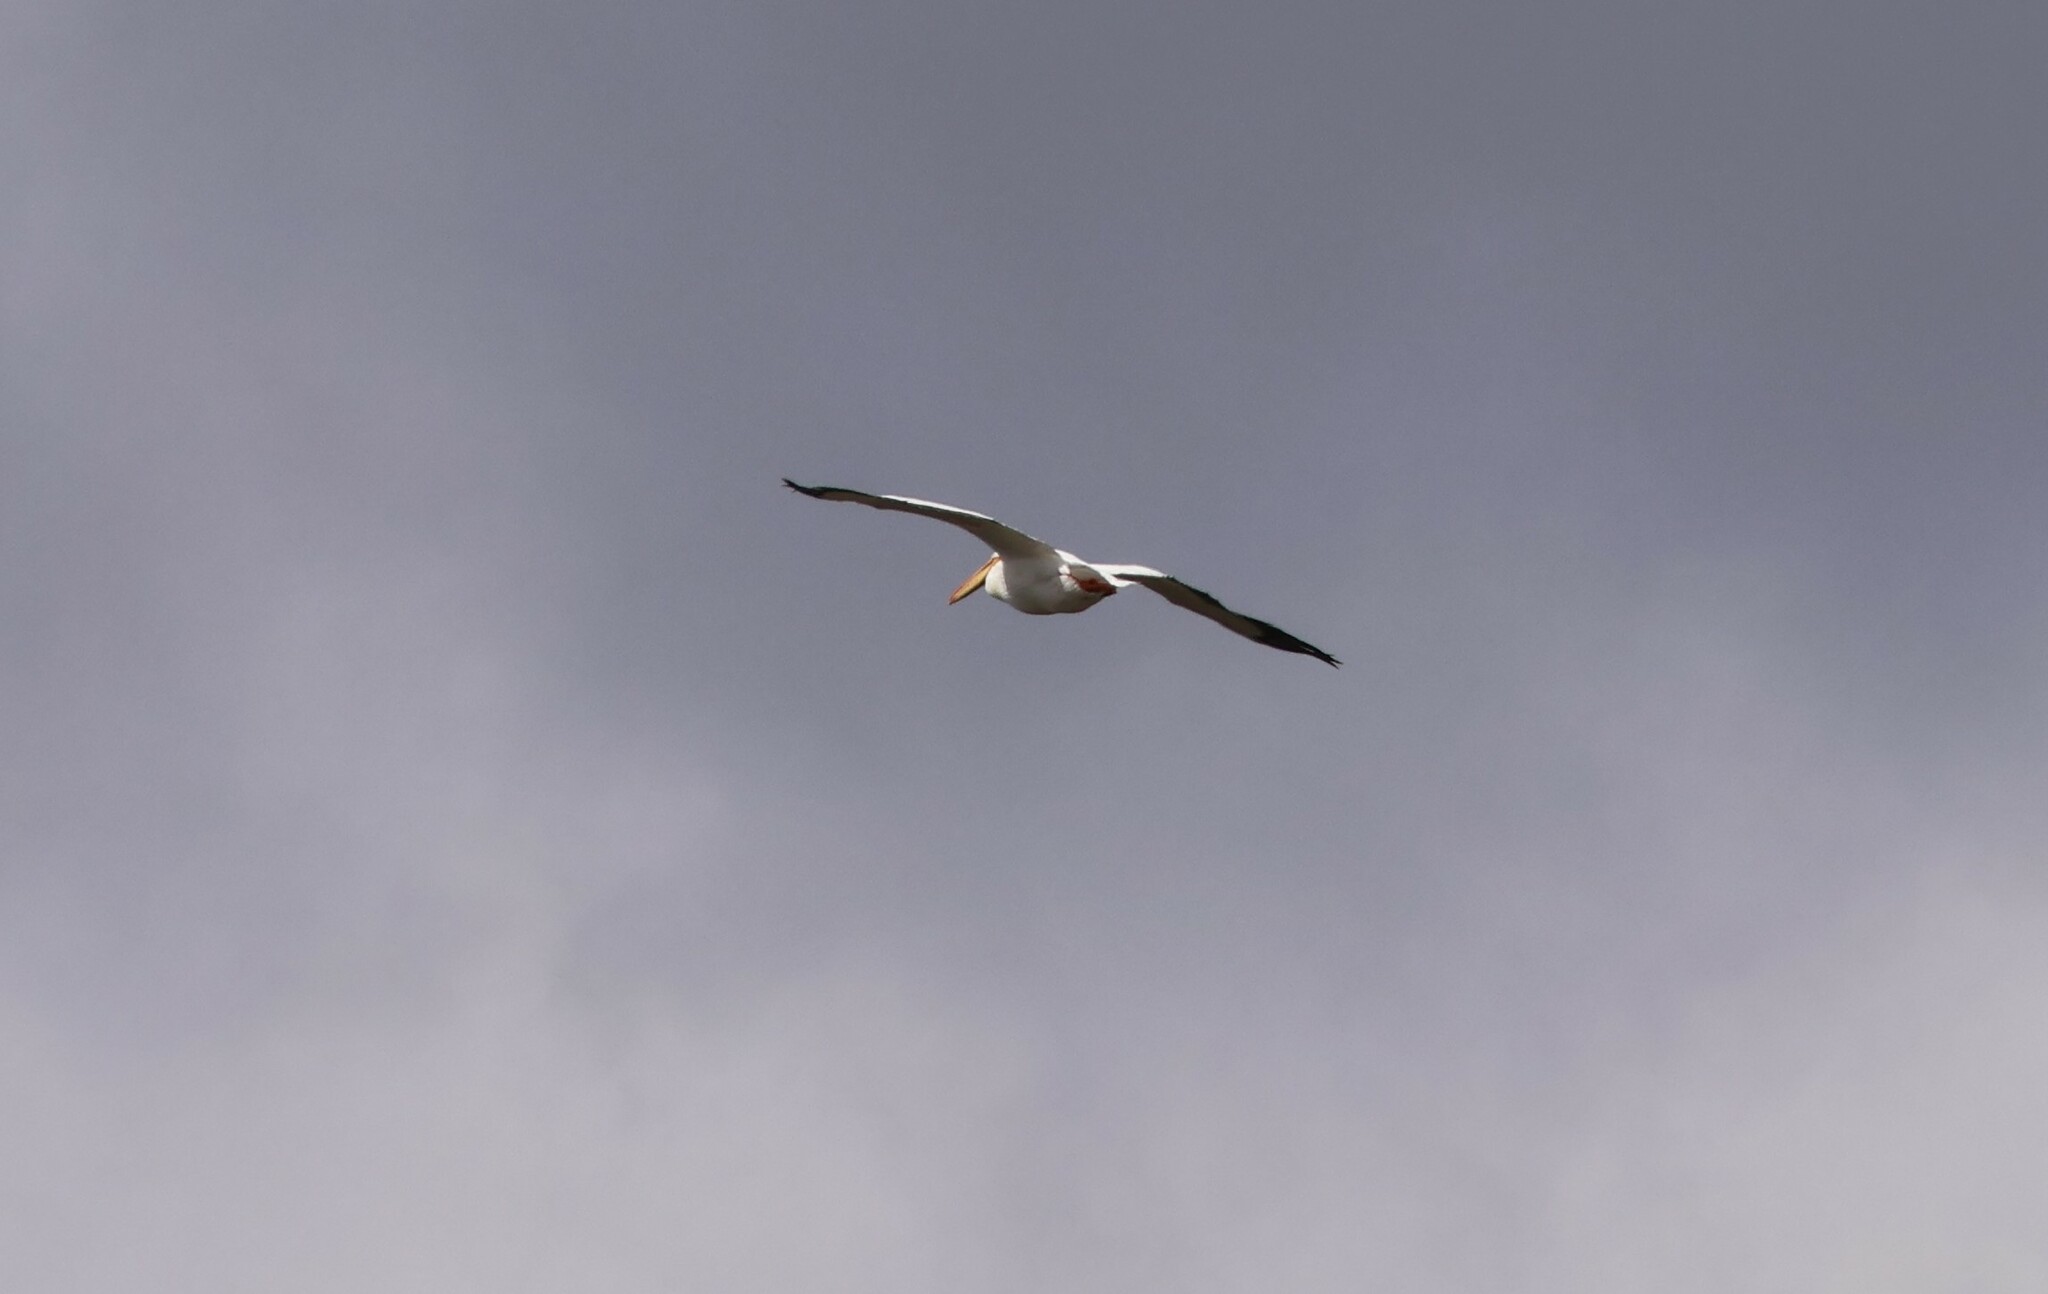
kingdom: Animalia
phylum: Chordata
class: Aves
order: Pelecaniformes
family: Pelecanidae
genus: Pelecanus
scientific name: Pelecanus erythrorhynchos
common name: American white pelican
